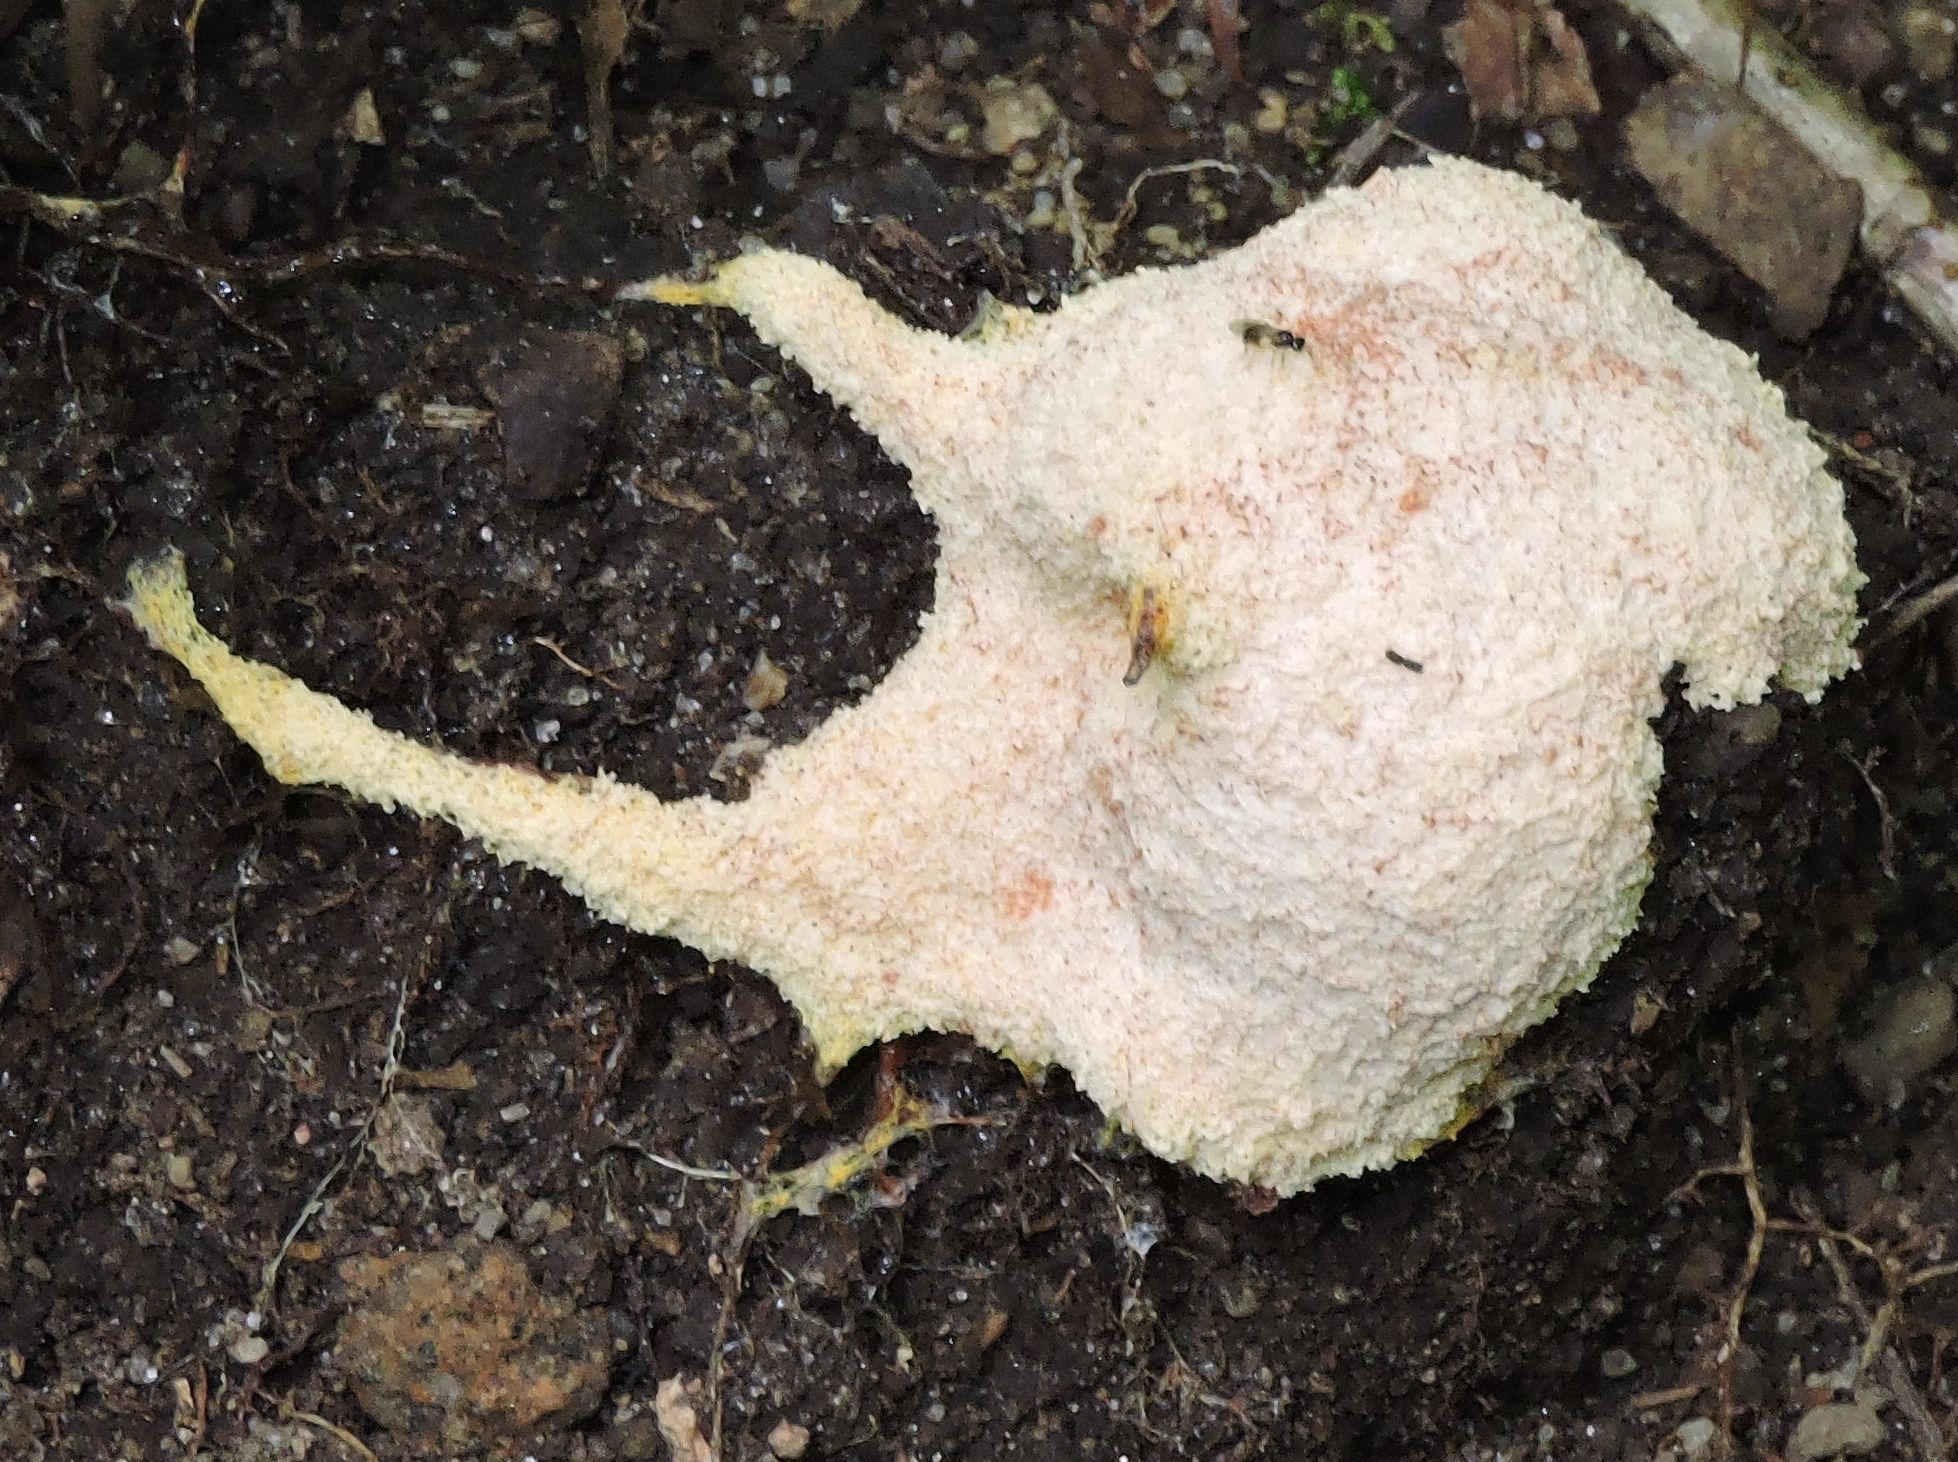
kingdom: Protozoa
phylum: Mycetozoa
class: Myxomycetes
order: Physarales
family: Physaraceae
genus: Fuligo
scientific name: Fuligo septica
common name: Dog vomit slime mold
